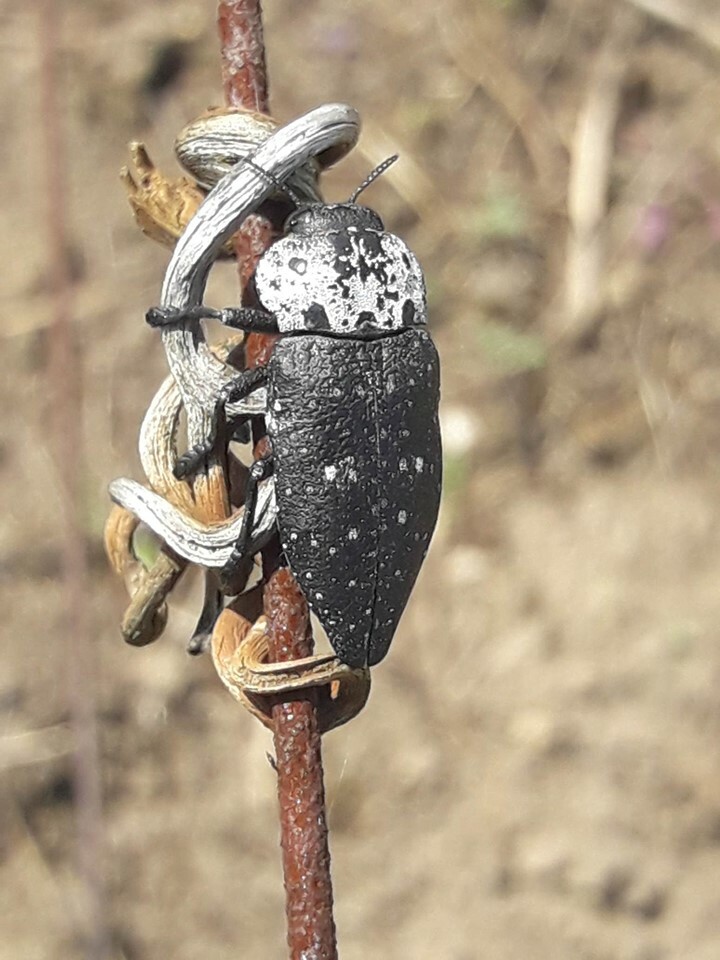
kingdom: Animalia
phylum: Arthropoda
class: Insecta
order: Coleoptera
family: Buprestidae
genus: Capnodis
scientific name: Capnodis tenebrionis
